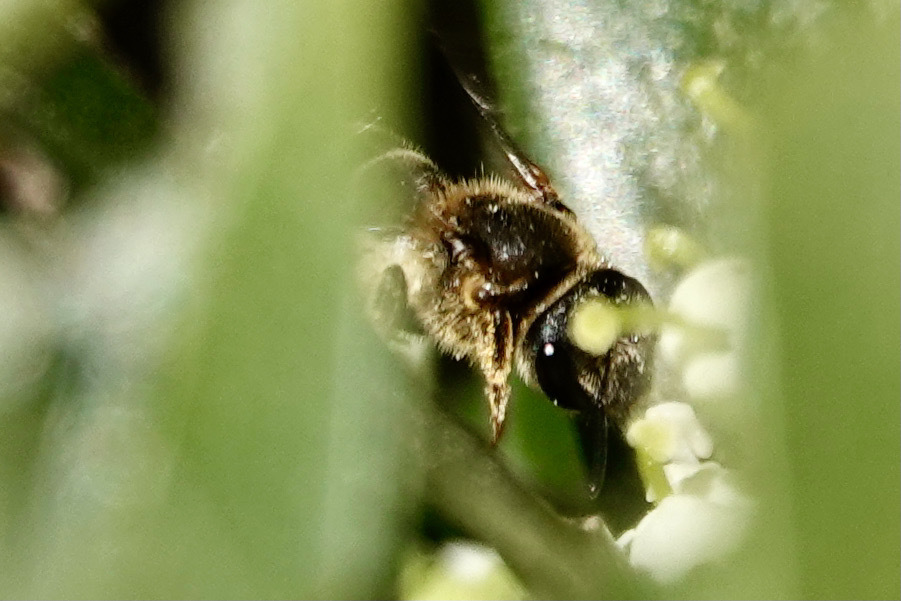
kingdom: Animalia
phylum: Arthropoda
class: Insecta
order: Hymenoptera
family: Halictidae
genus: Halictus
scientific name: Halictus rubicundus
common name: Orange-legged furrow bee
